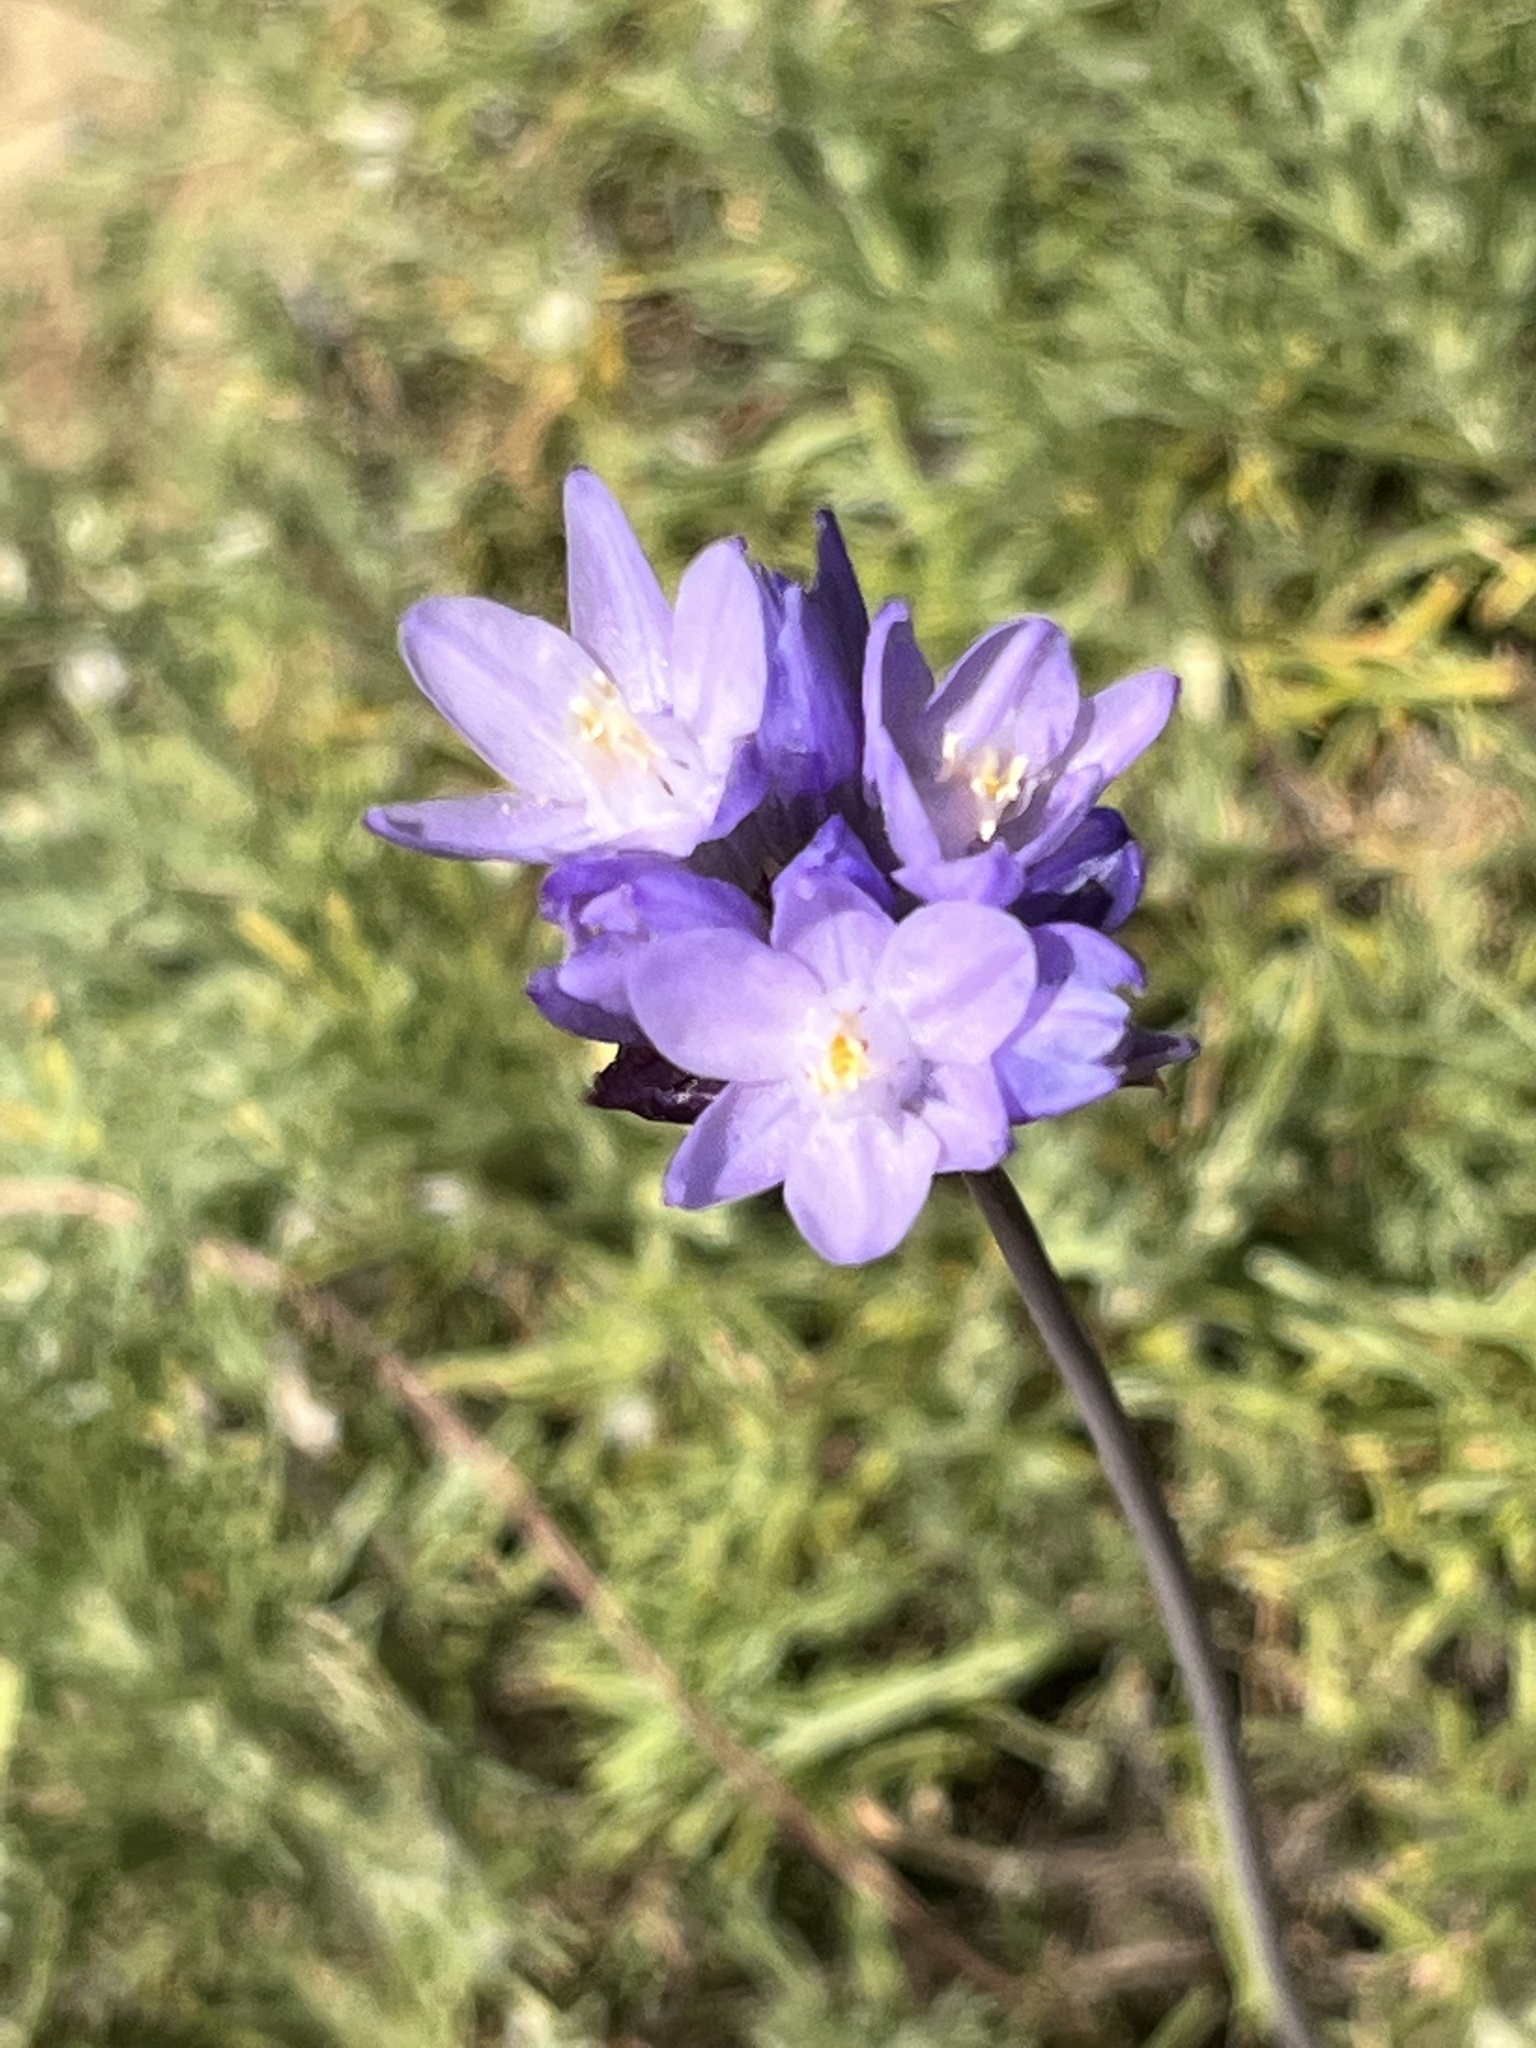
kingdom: Plantae
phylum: Tracheophyta
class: Liliopsida
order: Asparagales
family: Asparagaceae
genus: Dipterostemon
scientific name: Dipterostemon capitatus
